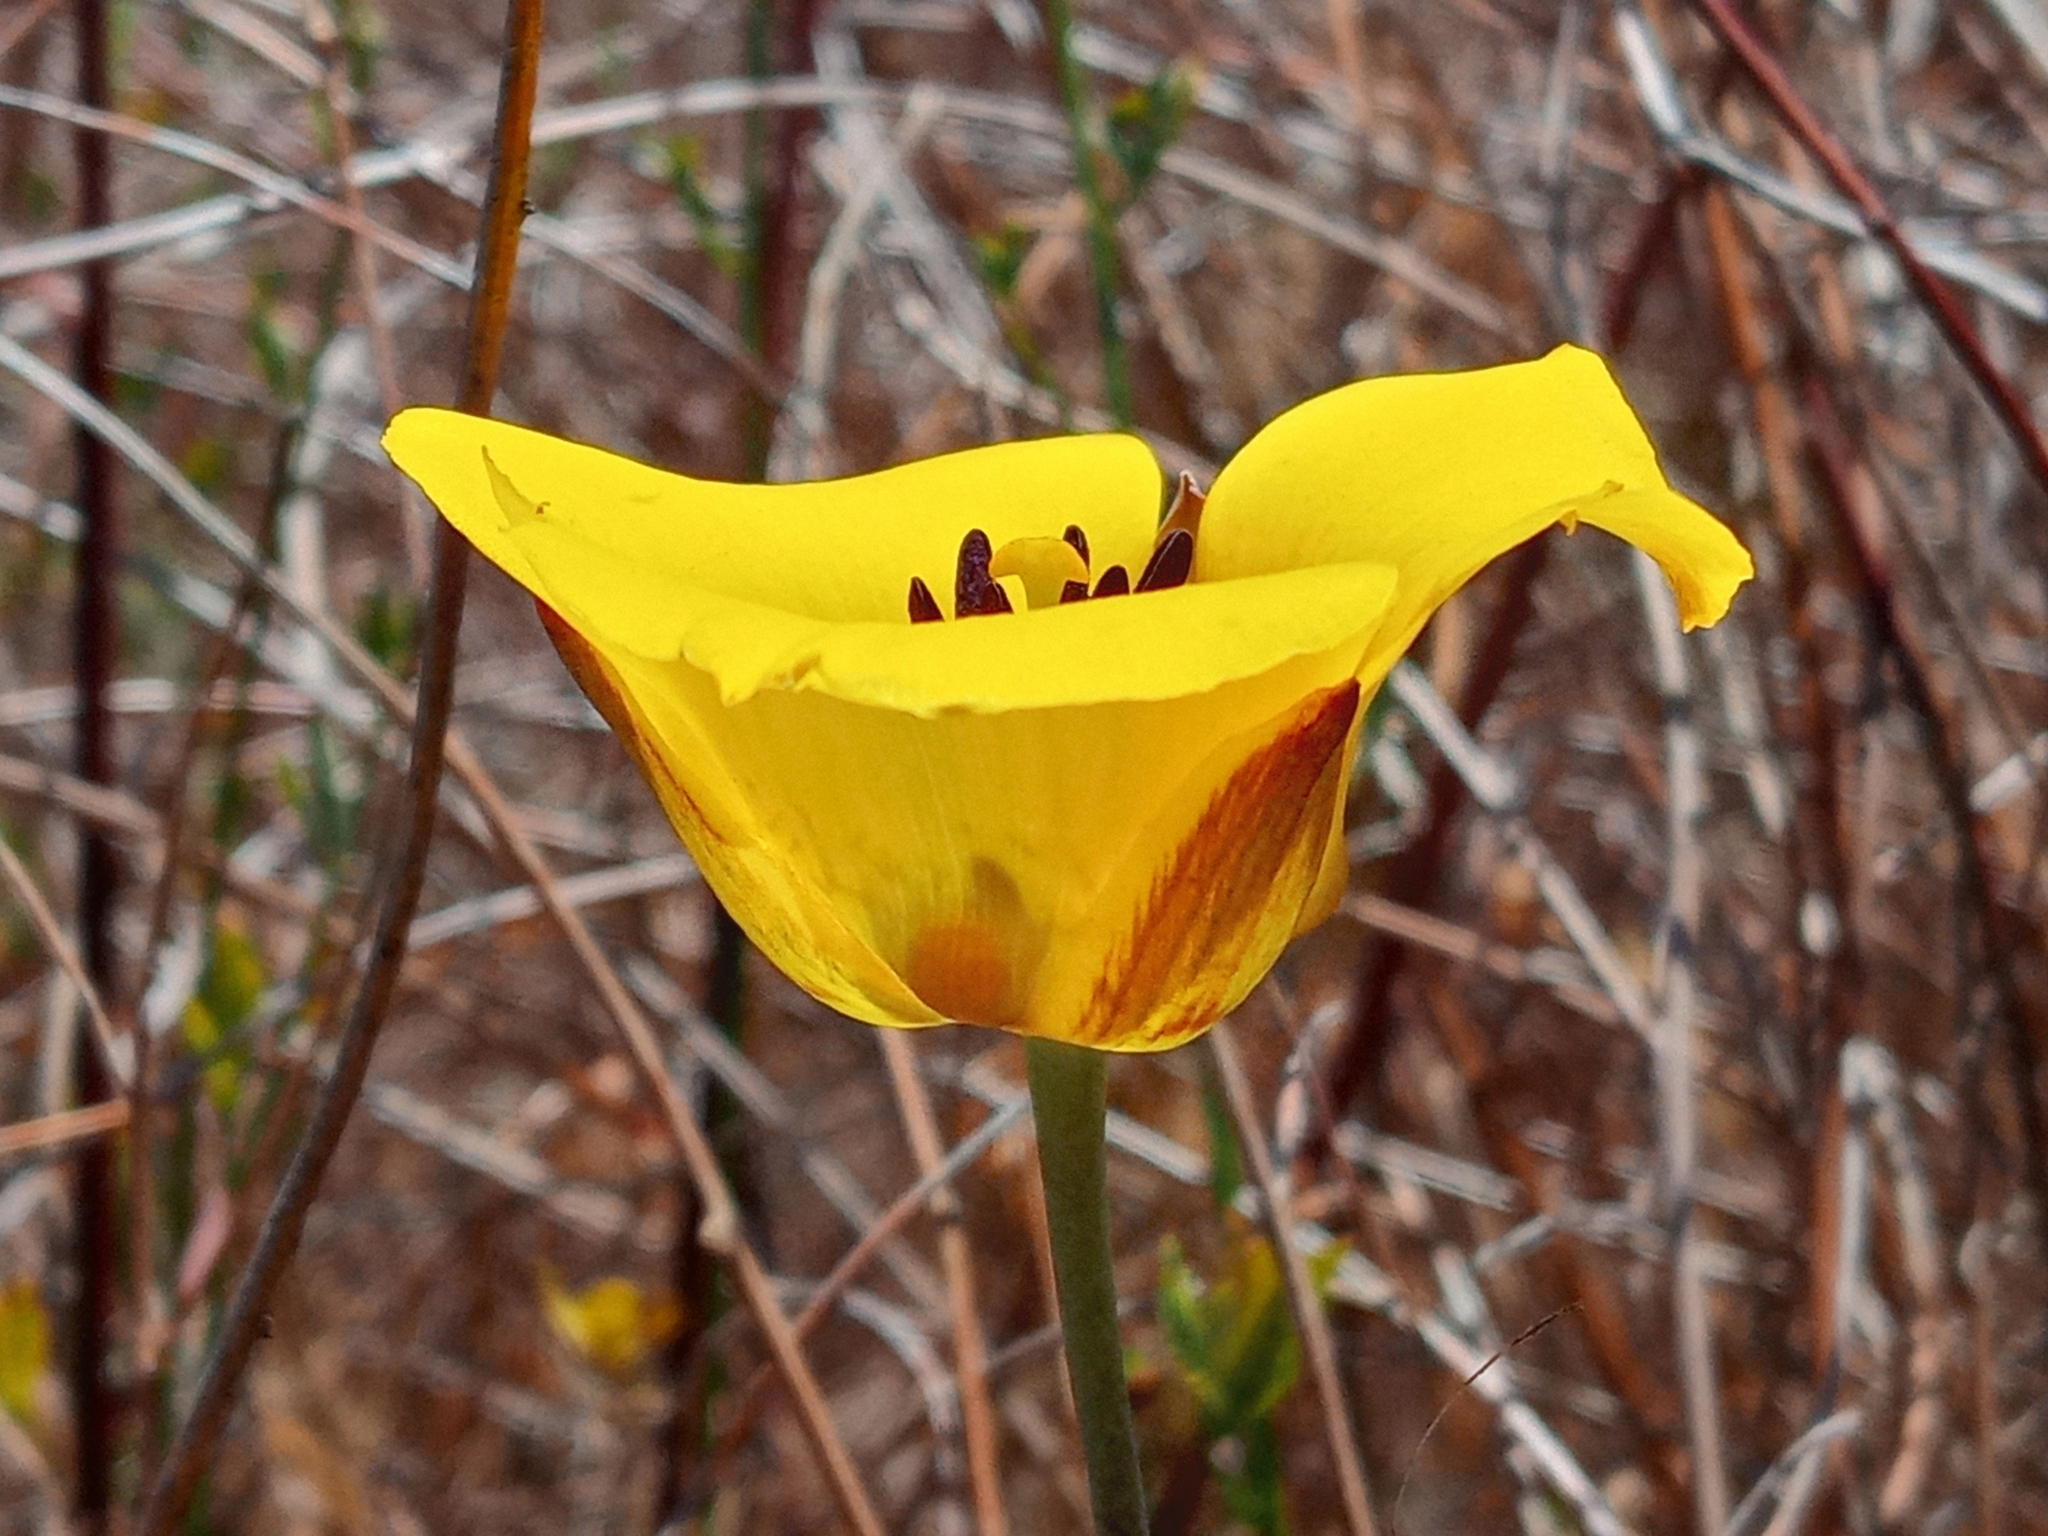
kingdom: Plantae
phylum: Tracheophyta
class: Liliopsida
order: Liliales
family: Liliaceae
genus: Calochortus
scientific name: Calochortus clavatus
